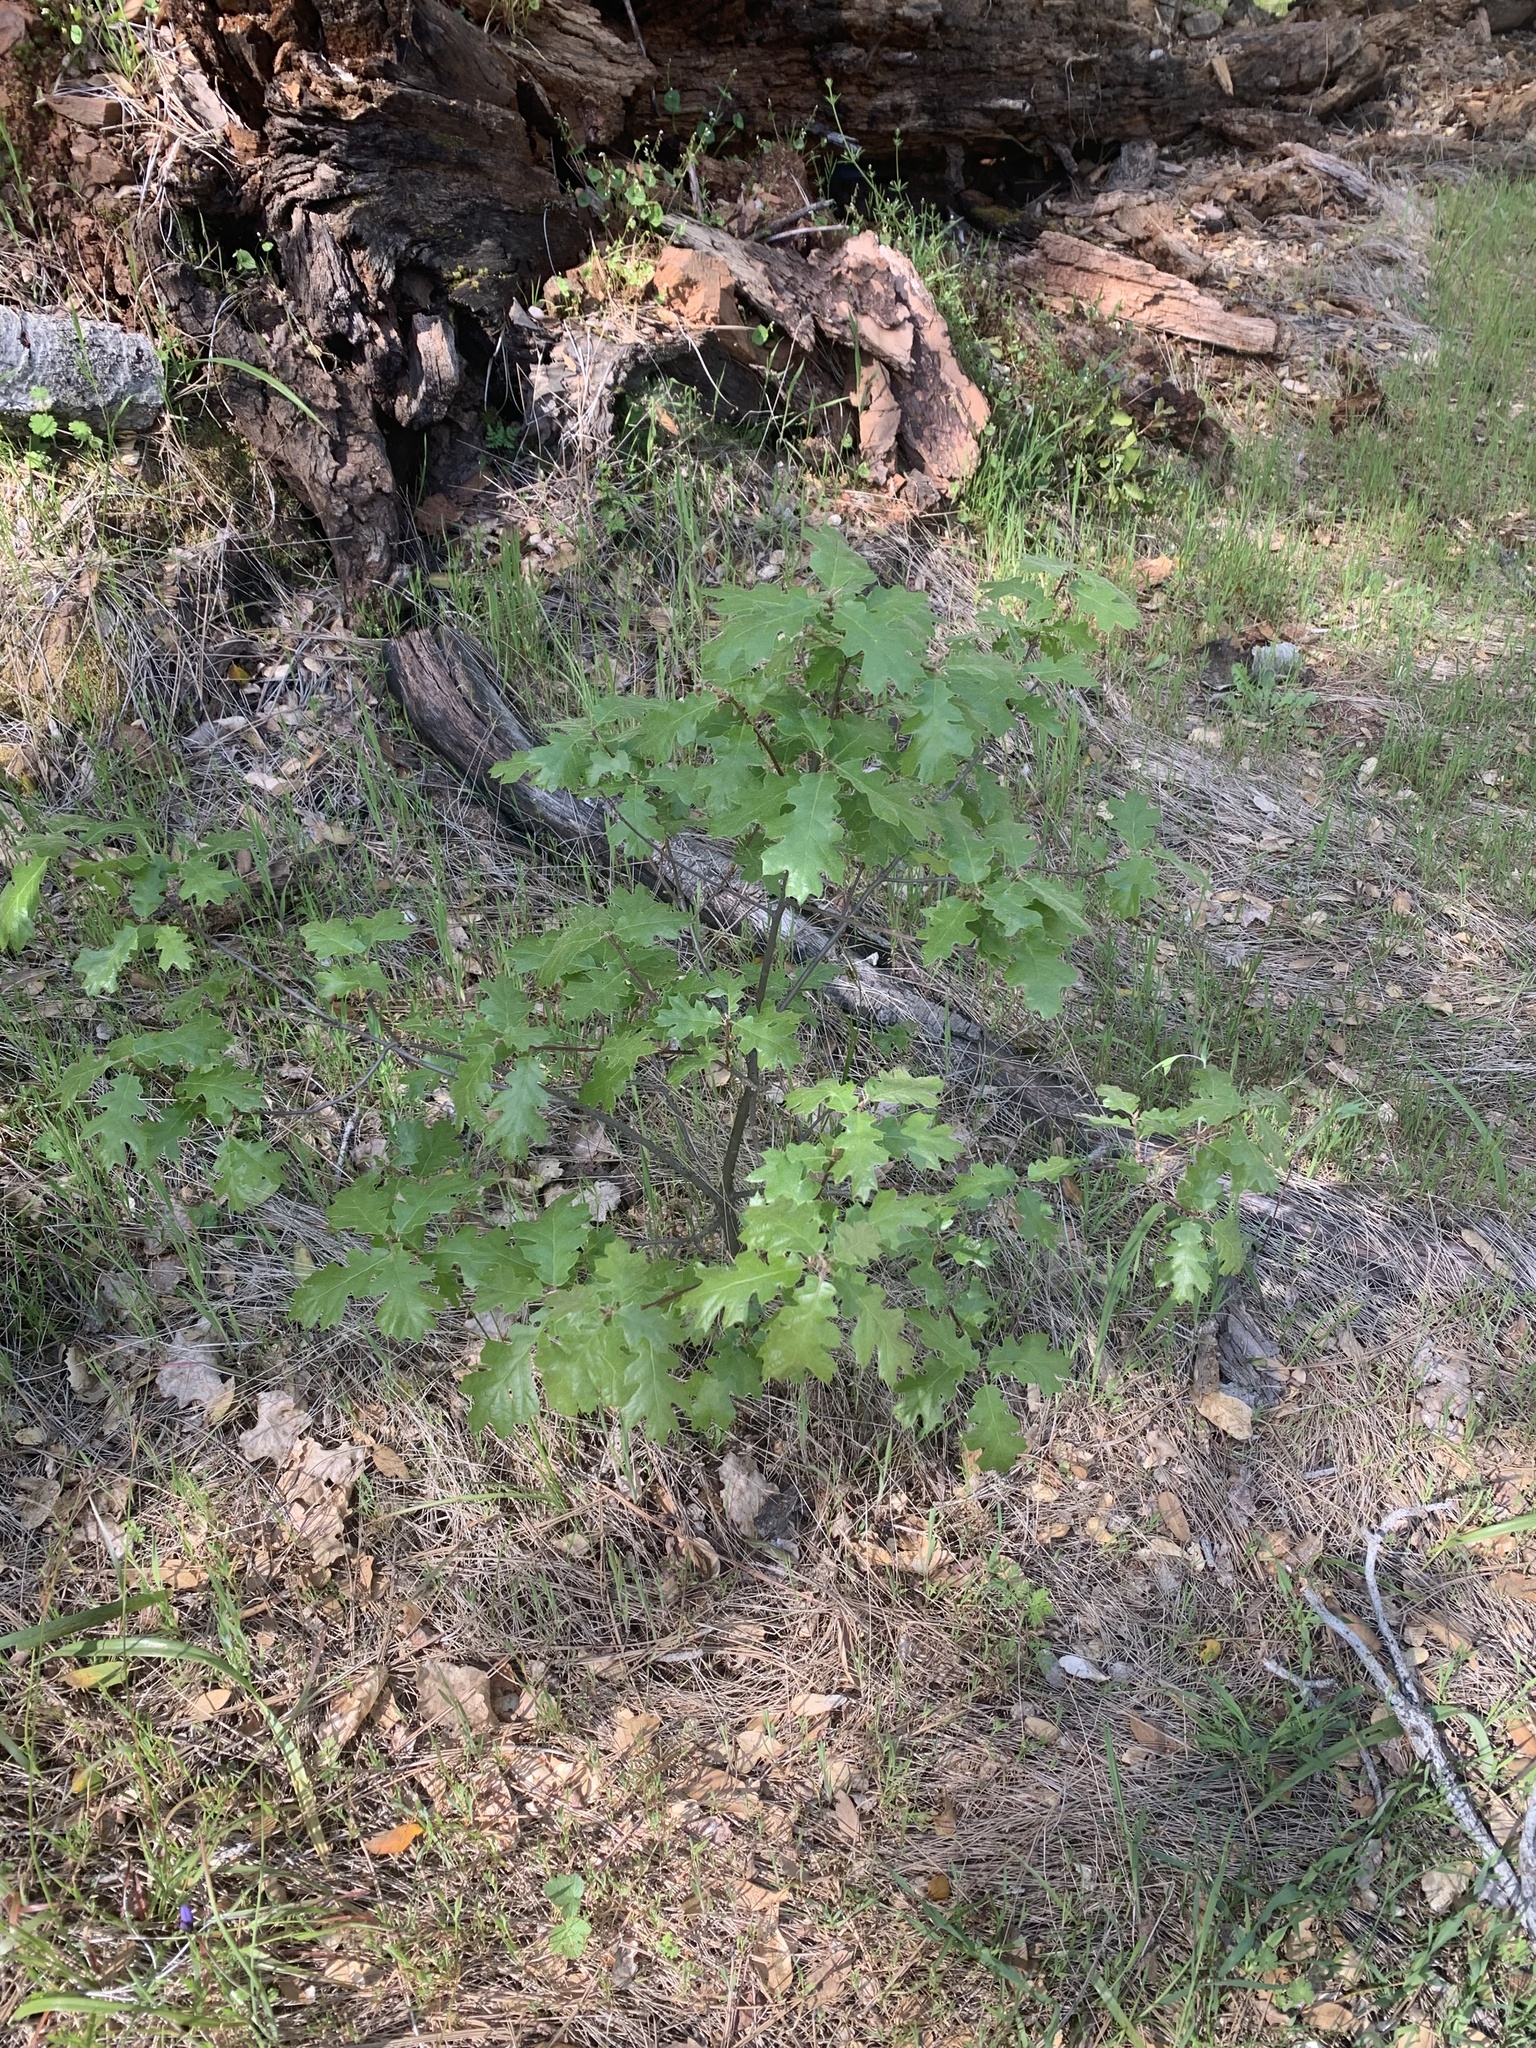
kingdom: Plantae
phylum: Tracheophyta
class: Magnoliopsida
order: Fagales
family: Fagaceae
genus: Quercus
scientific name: Quercus kelloggii
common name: California black oak
